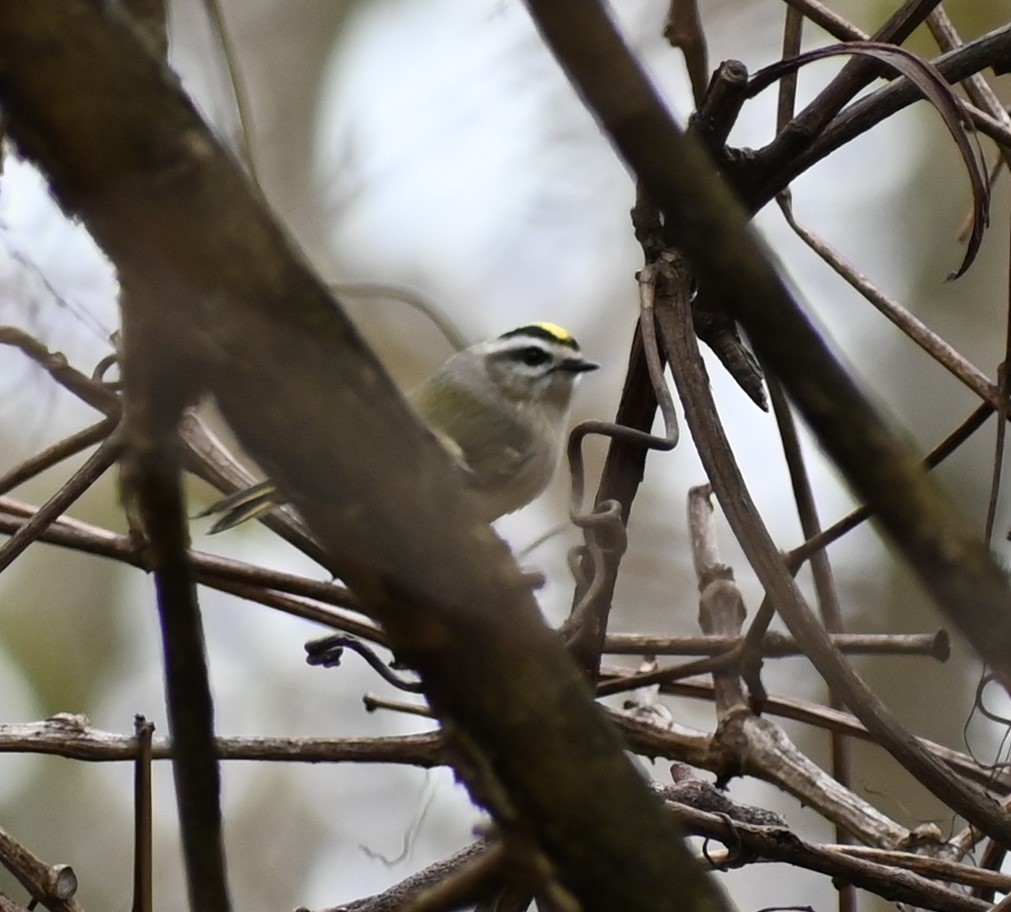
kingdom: Animalia
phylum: Chordata
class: Aves
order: Passeriformes
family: Regulidae
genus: Regulus
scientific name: Regulus satrapa
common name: Golden-crowned kinglet
